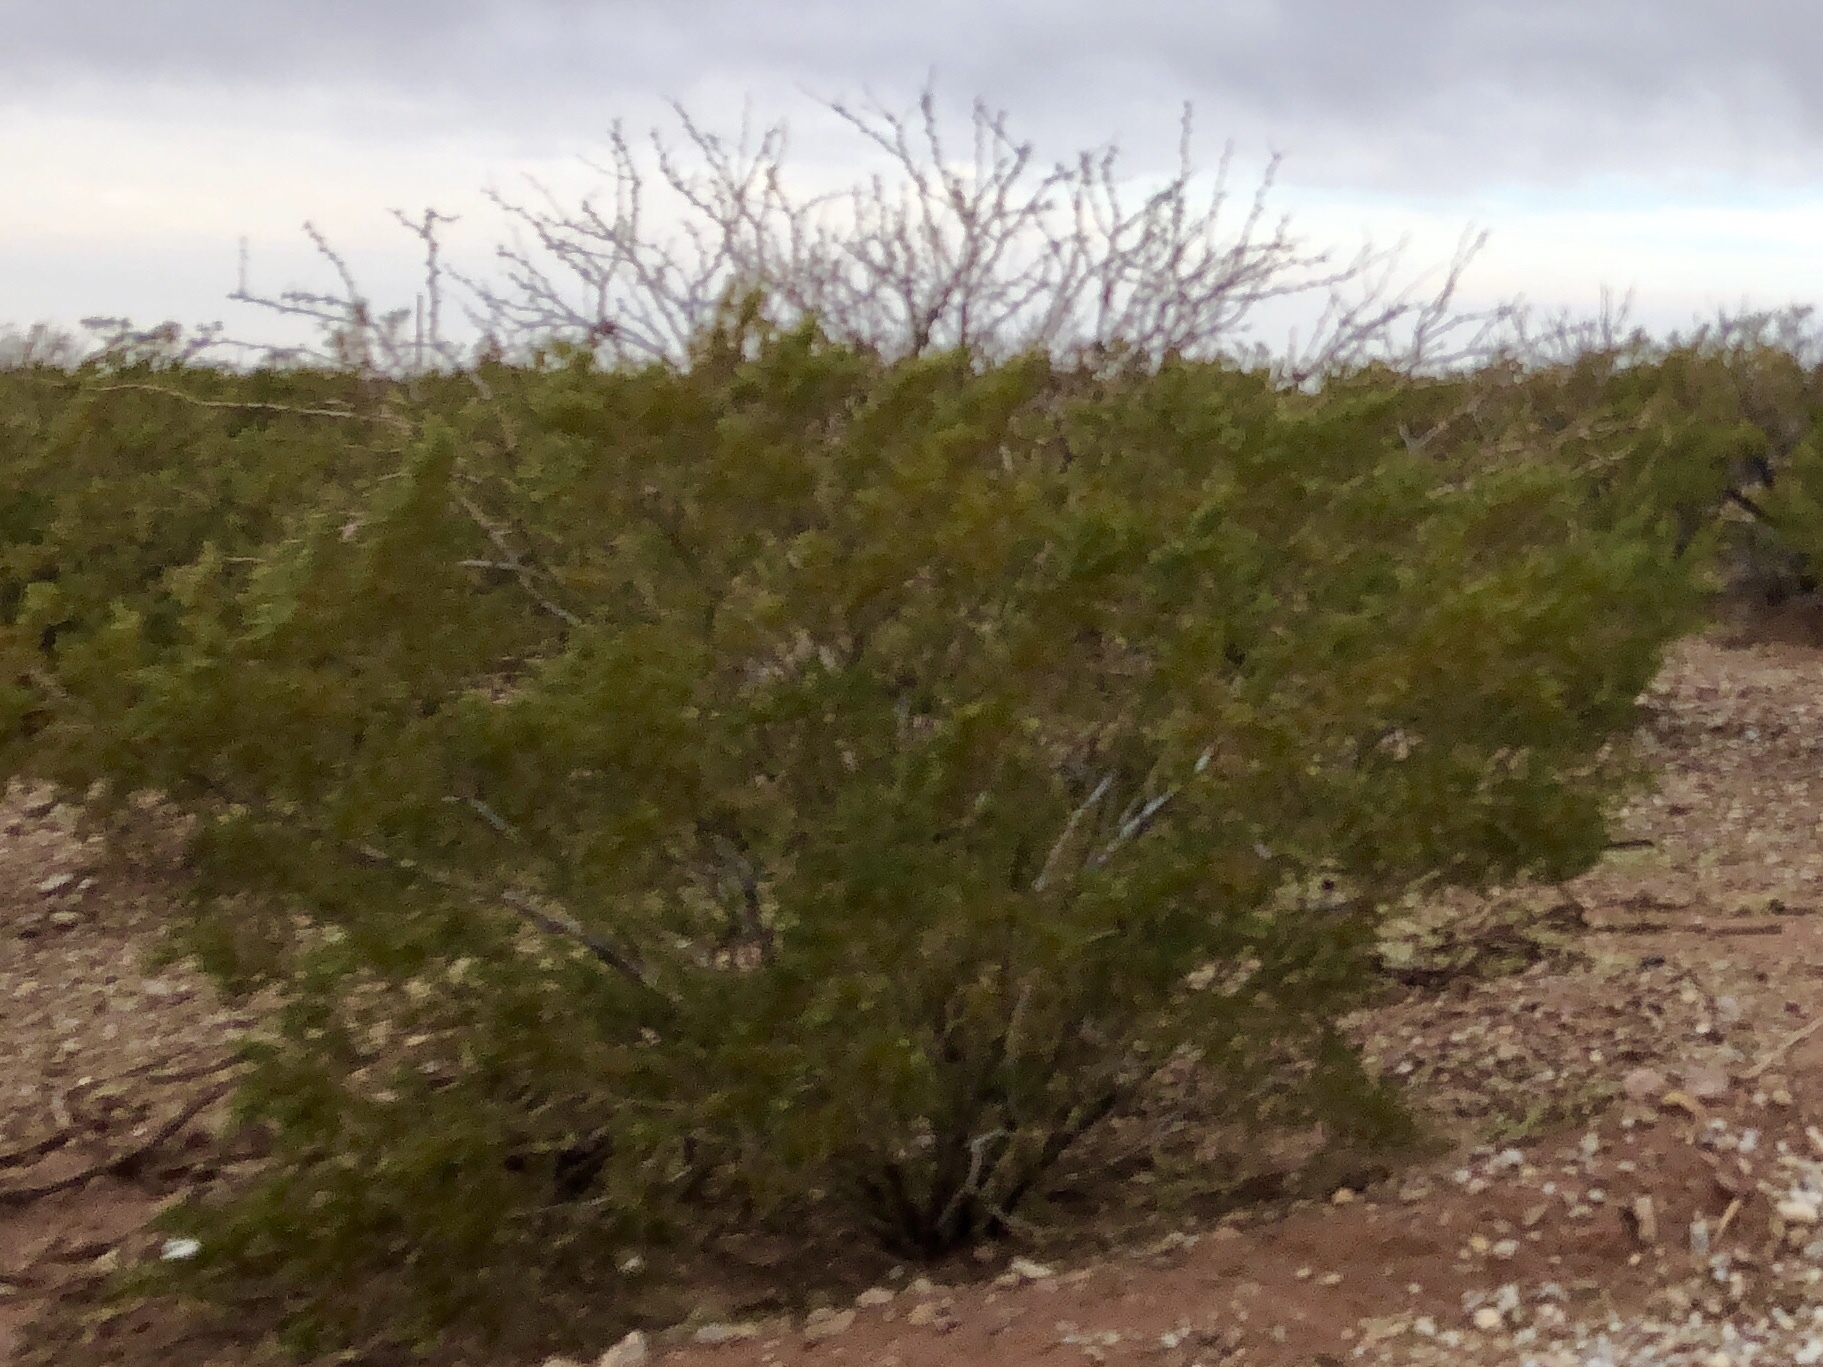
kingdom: Plantae
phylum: Tracheophyta
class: Magnoliopsida
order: Zygophyllales
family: Zygophyllaceae
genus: Larrea
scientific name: Larrea tridentata
